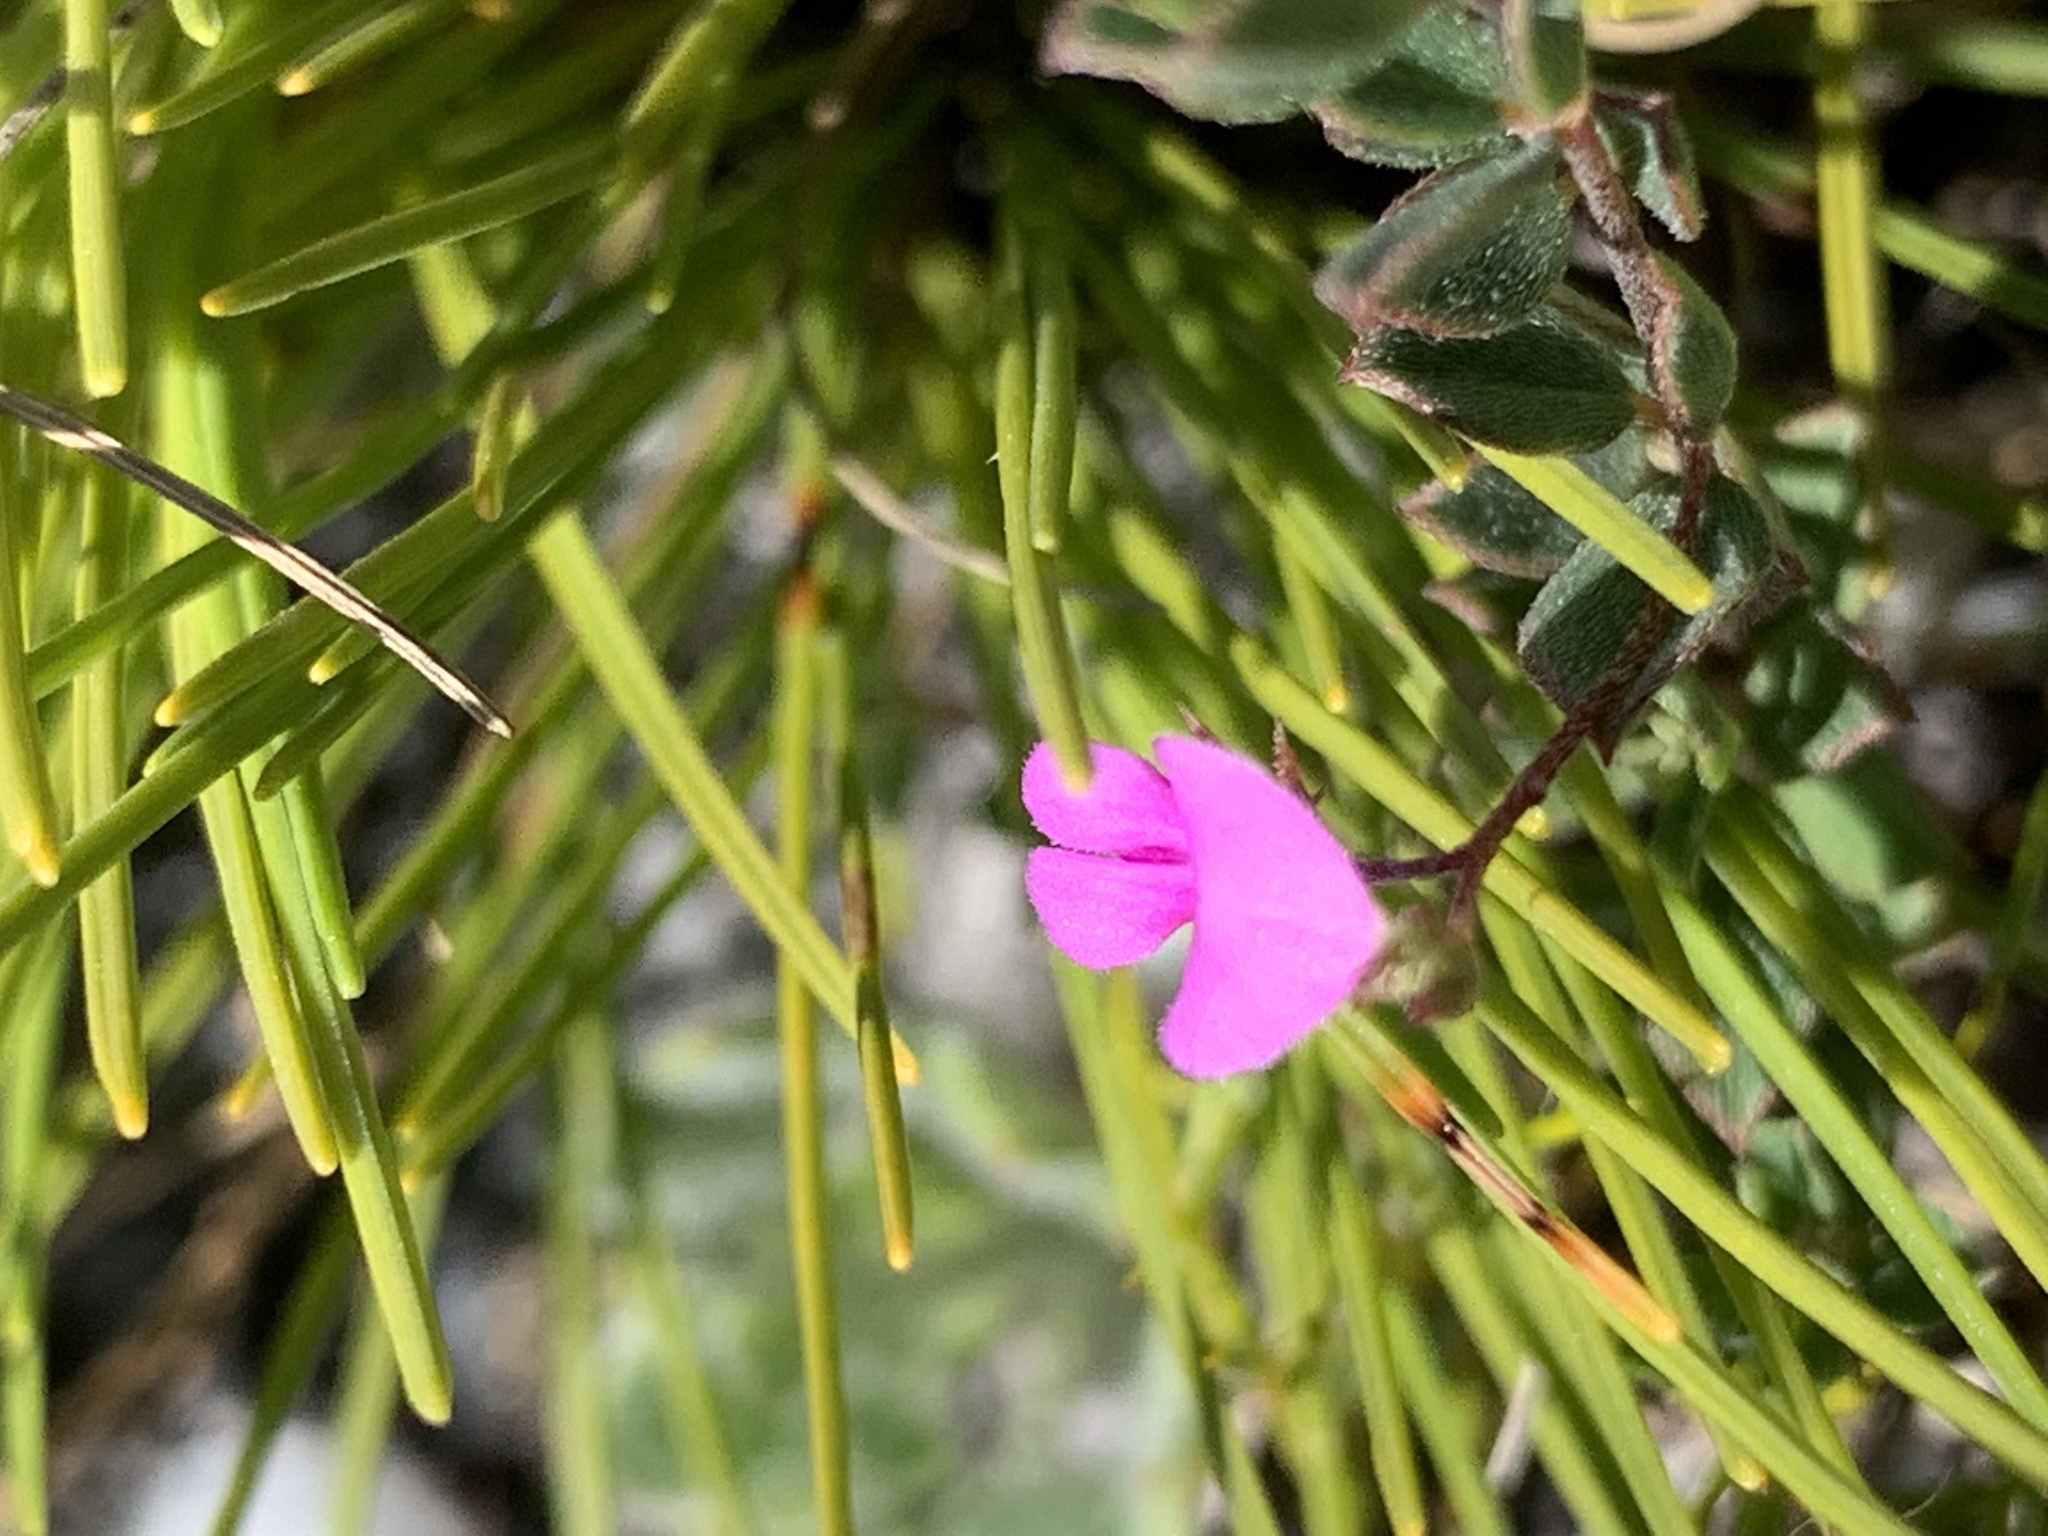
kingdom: Plantae
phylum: Tracheophyta
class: Magnoliopsida
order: Fabales
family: Fabaceae
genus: Indigofera
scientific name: Indigofera sarmentosa
